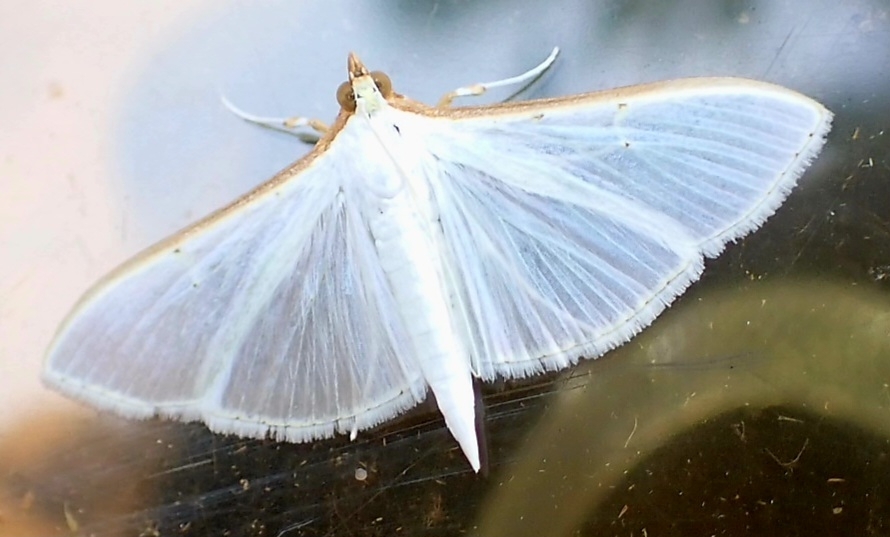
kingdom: Animalia
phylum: Arthropoda
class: Insecta
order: Lepidoptera
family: Crambidae
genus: Palpita
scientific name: Palpita vitrealis
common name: Olive-tree pearl
